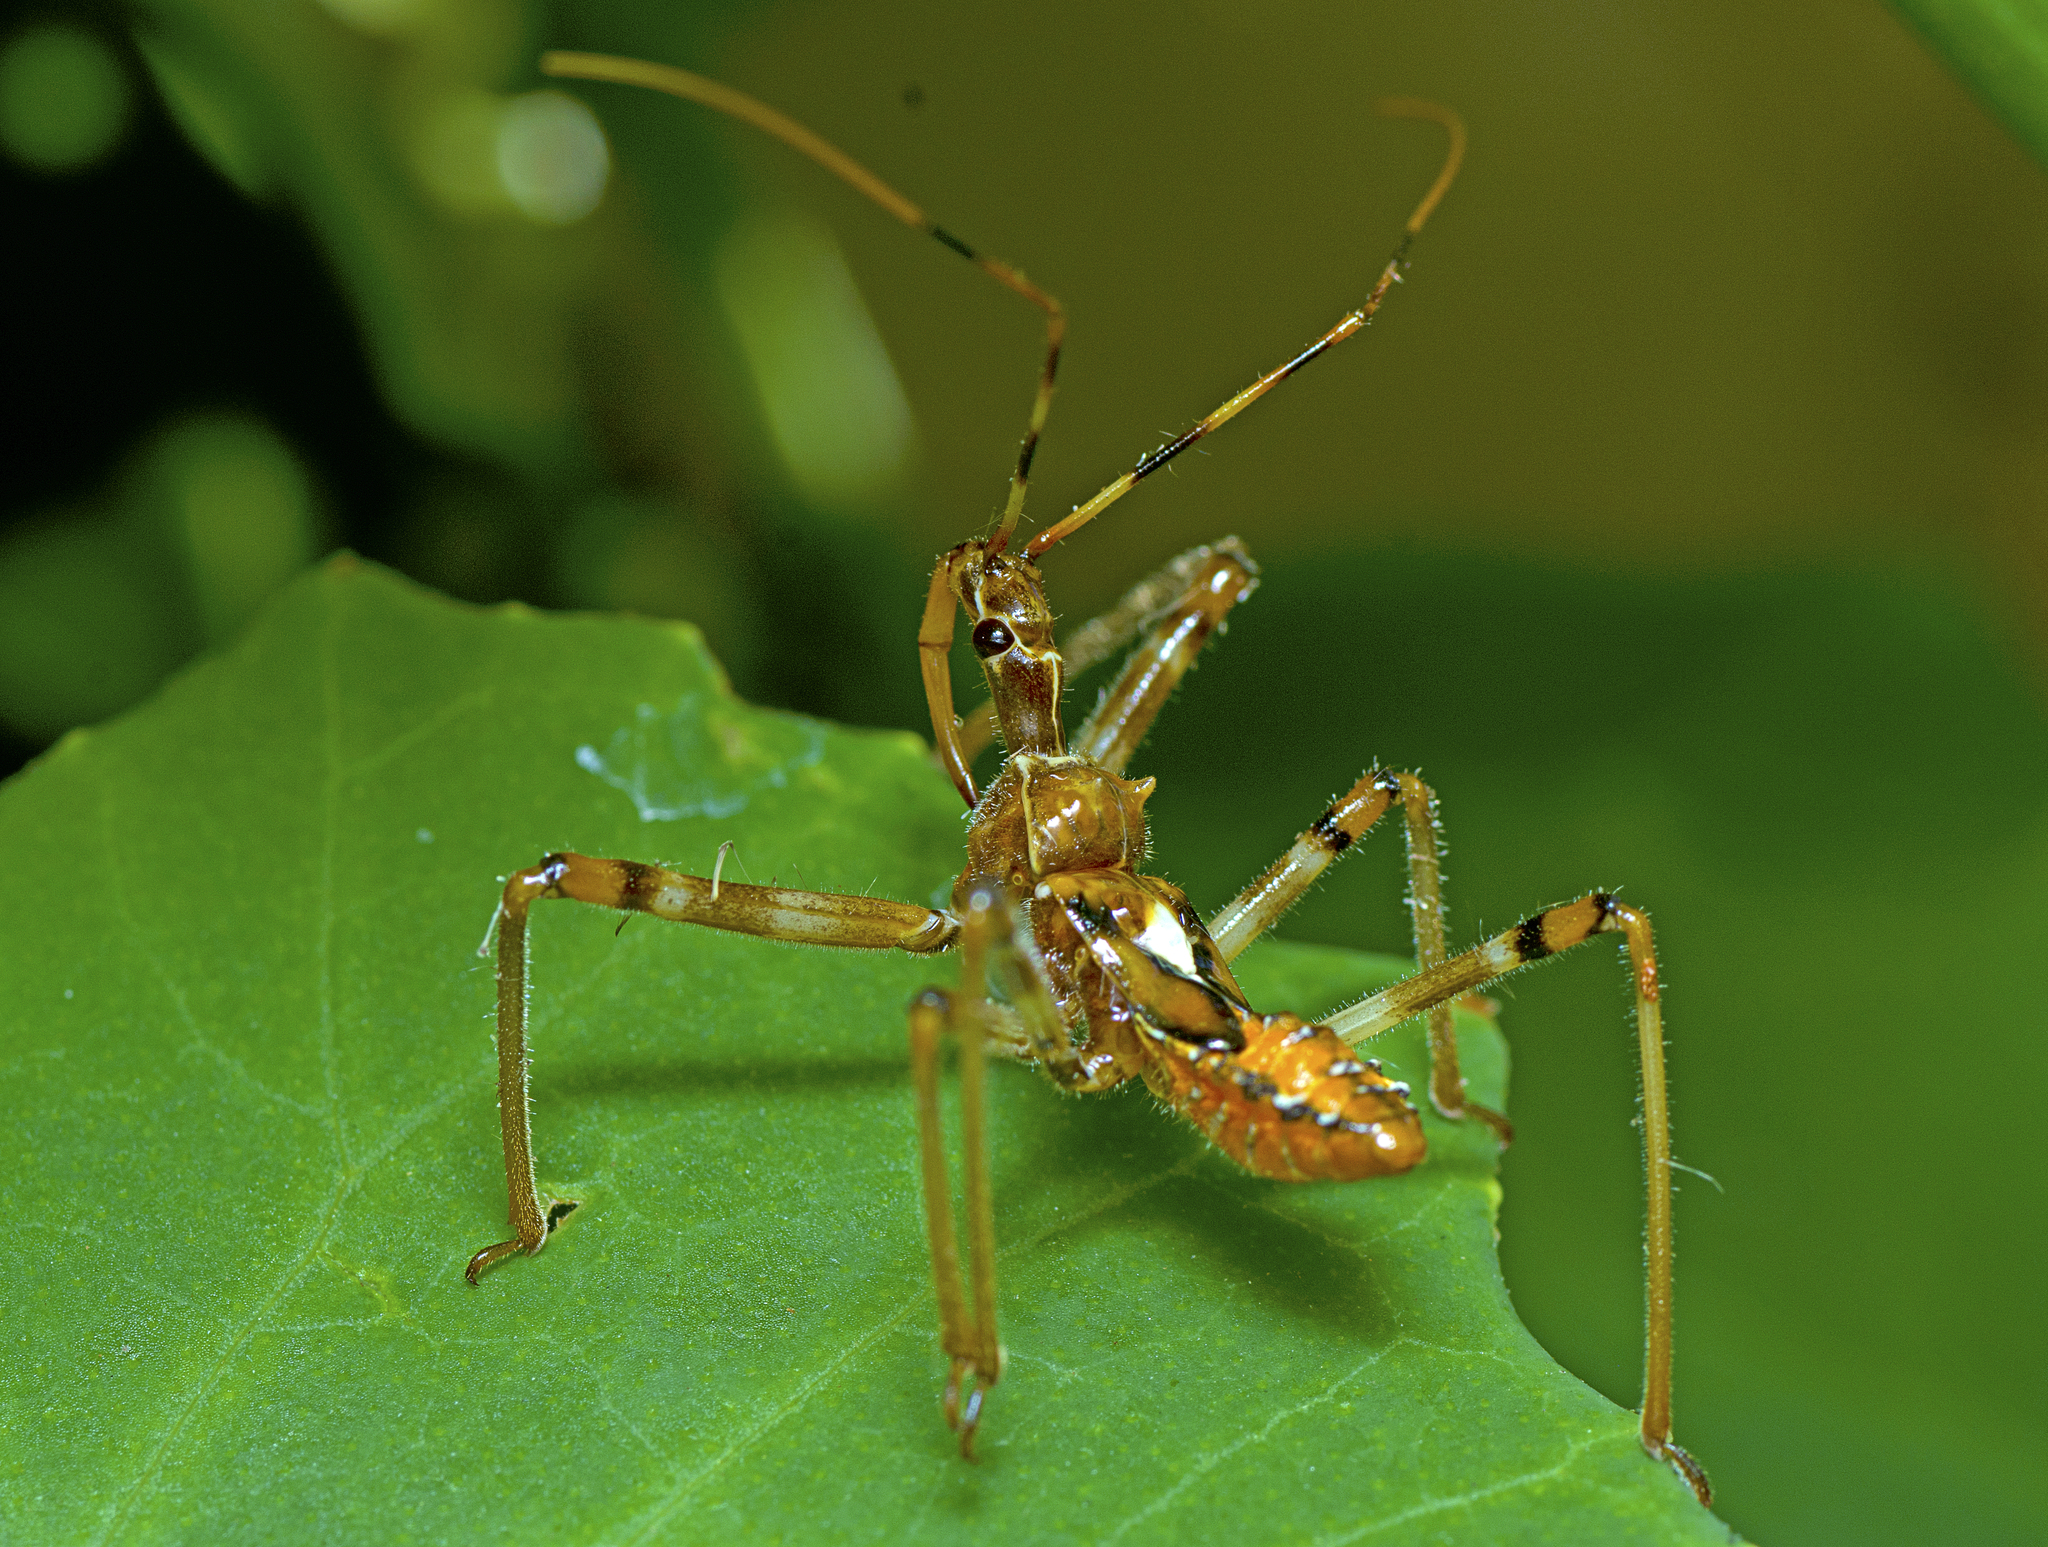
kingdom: Animalia
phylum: Arthropoda
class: Insecta
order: Hemiptera
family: Reduviidae
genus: Pristhesancus
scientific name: Pristhesancus plagipennis
